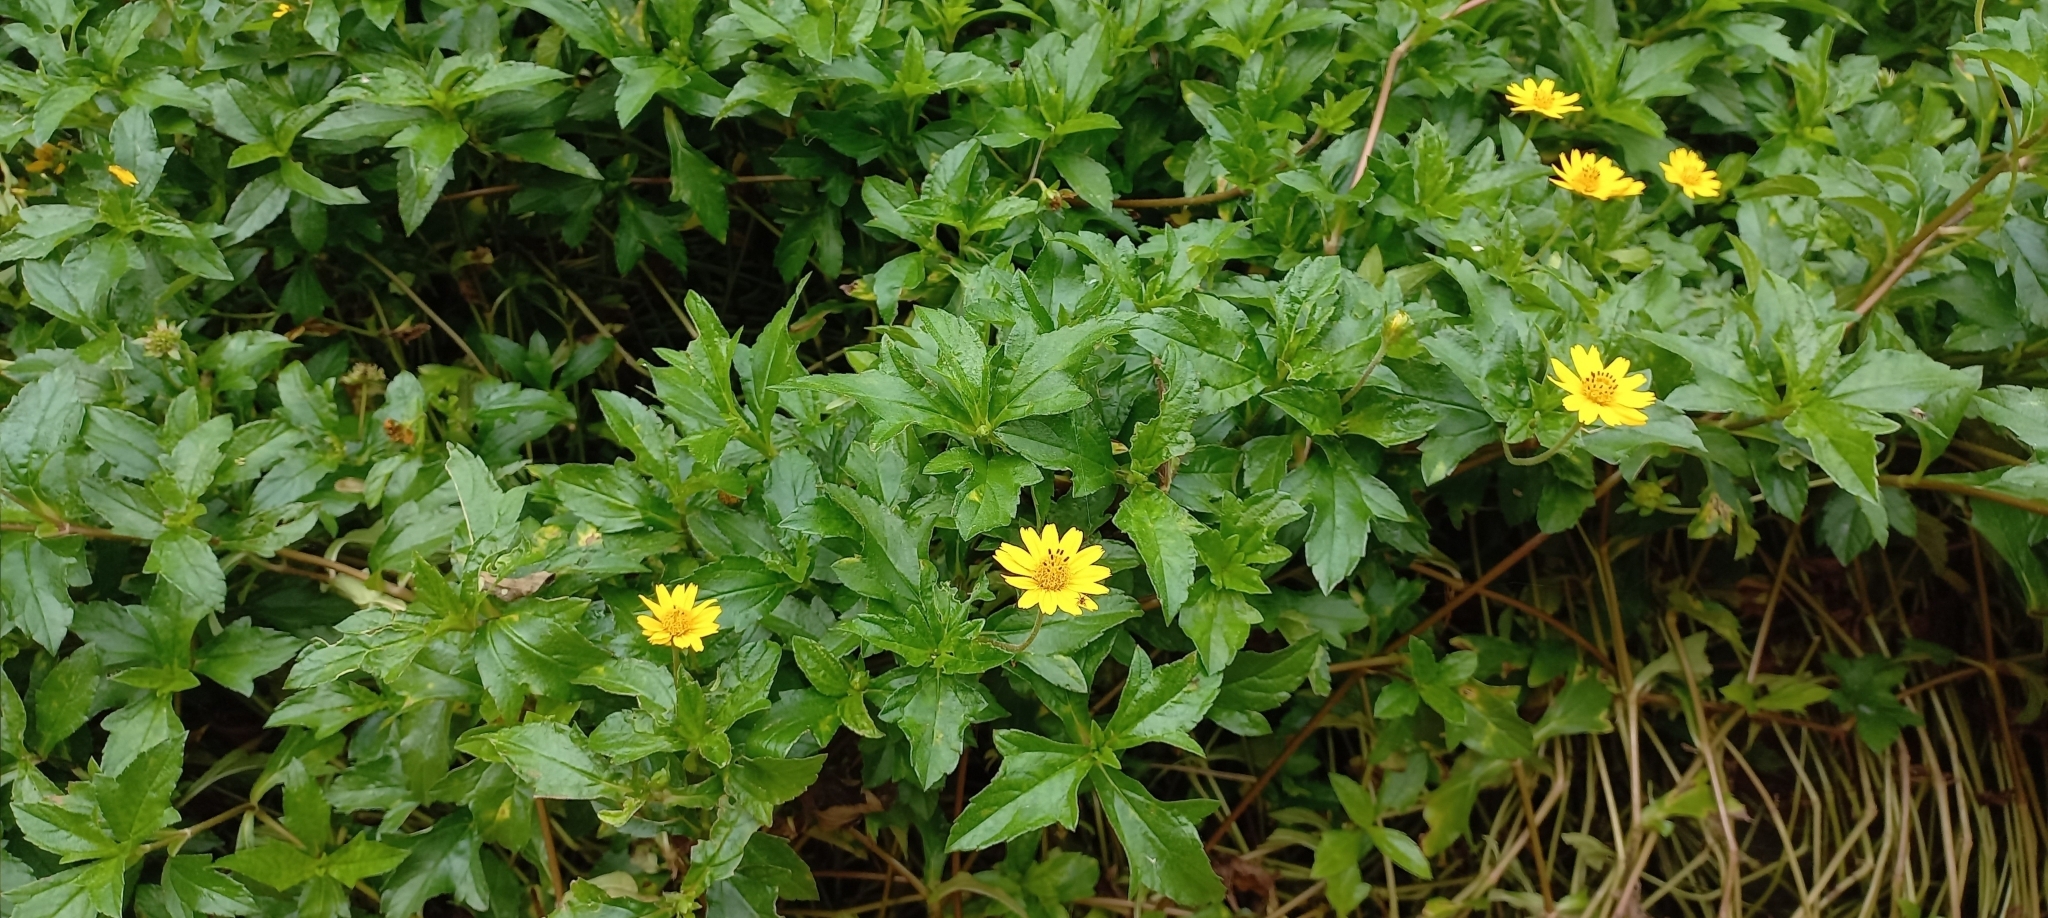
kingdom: Plantae
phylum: Tracheophyta
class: Magnoliopsida
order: Asterales
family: Asteraceae
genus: Sphagneticola
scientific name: Sphagneticola trilobata
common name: Bay biscayne creeping-oxeye
